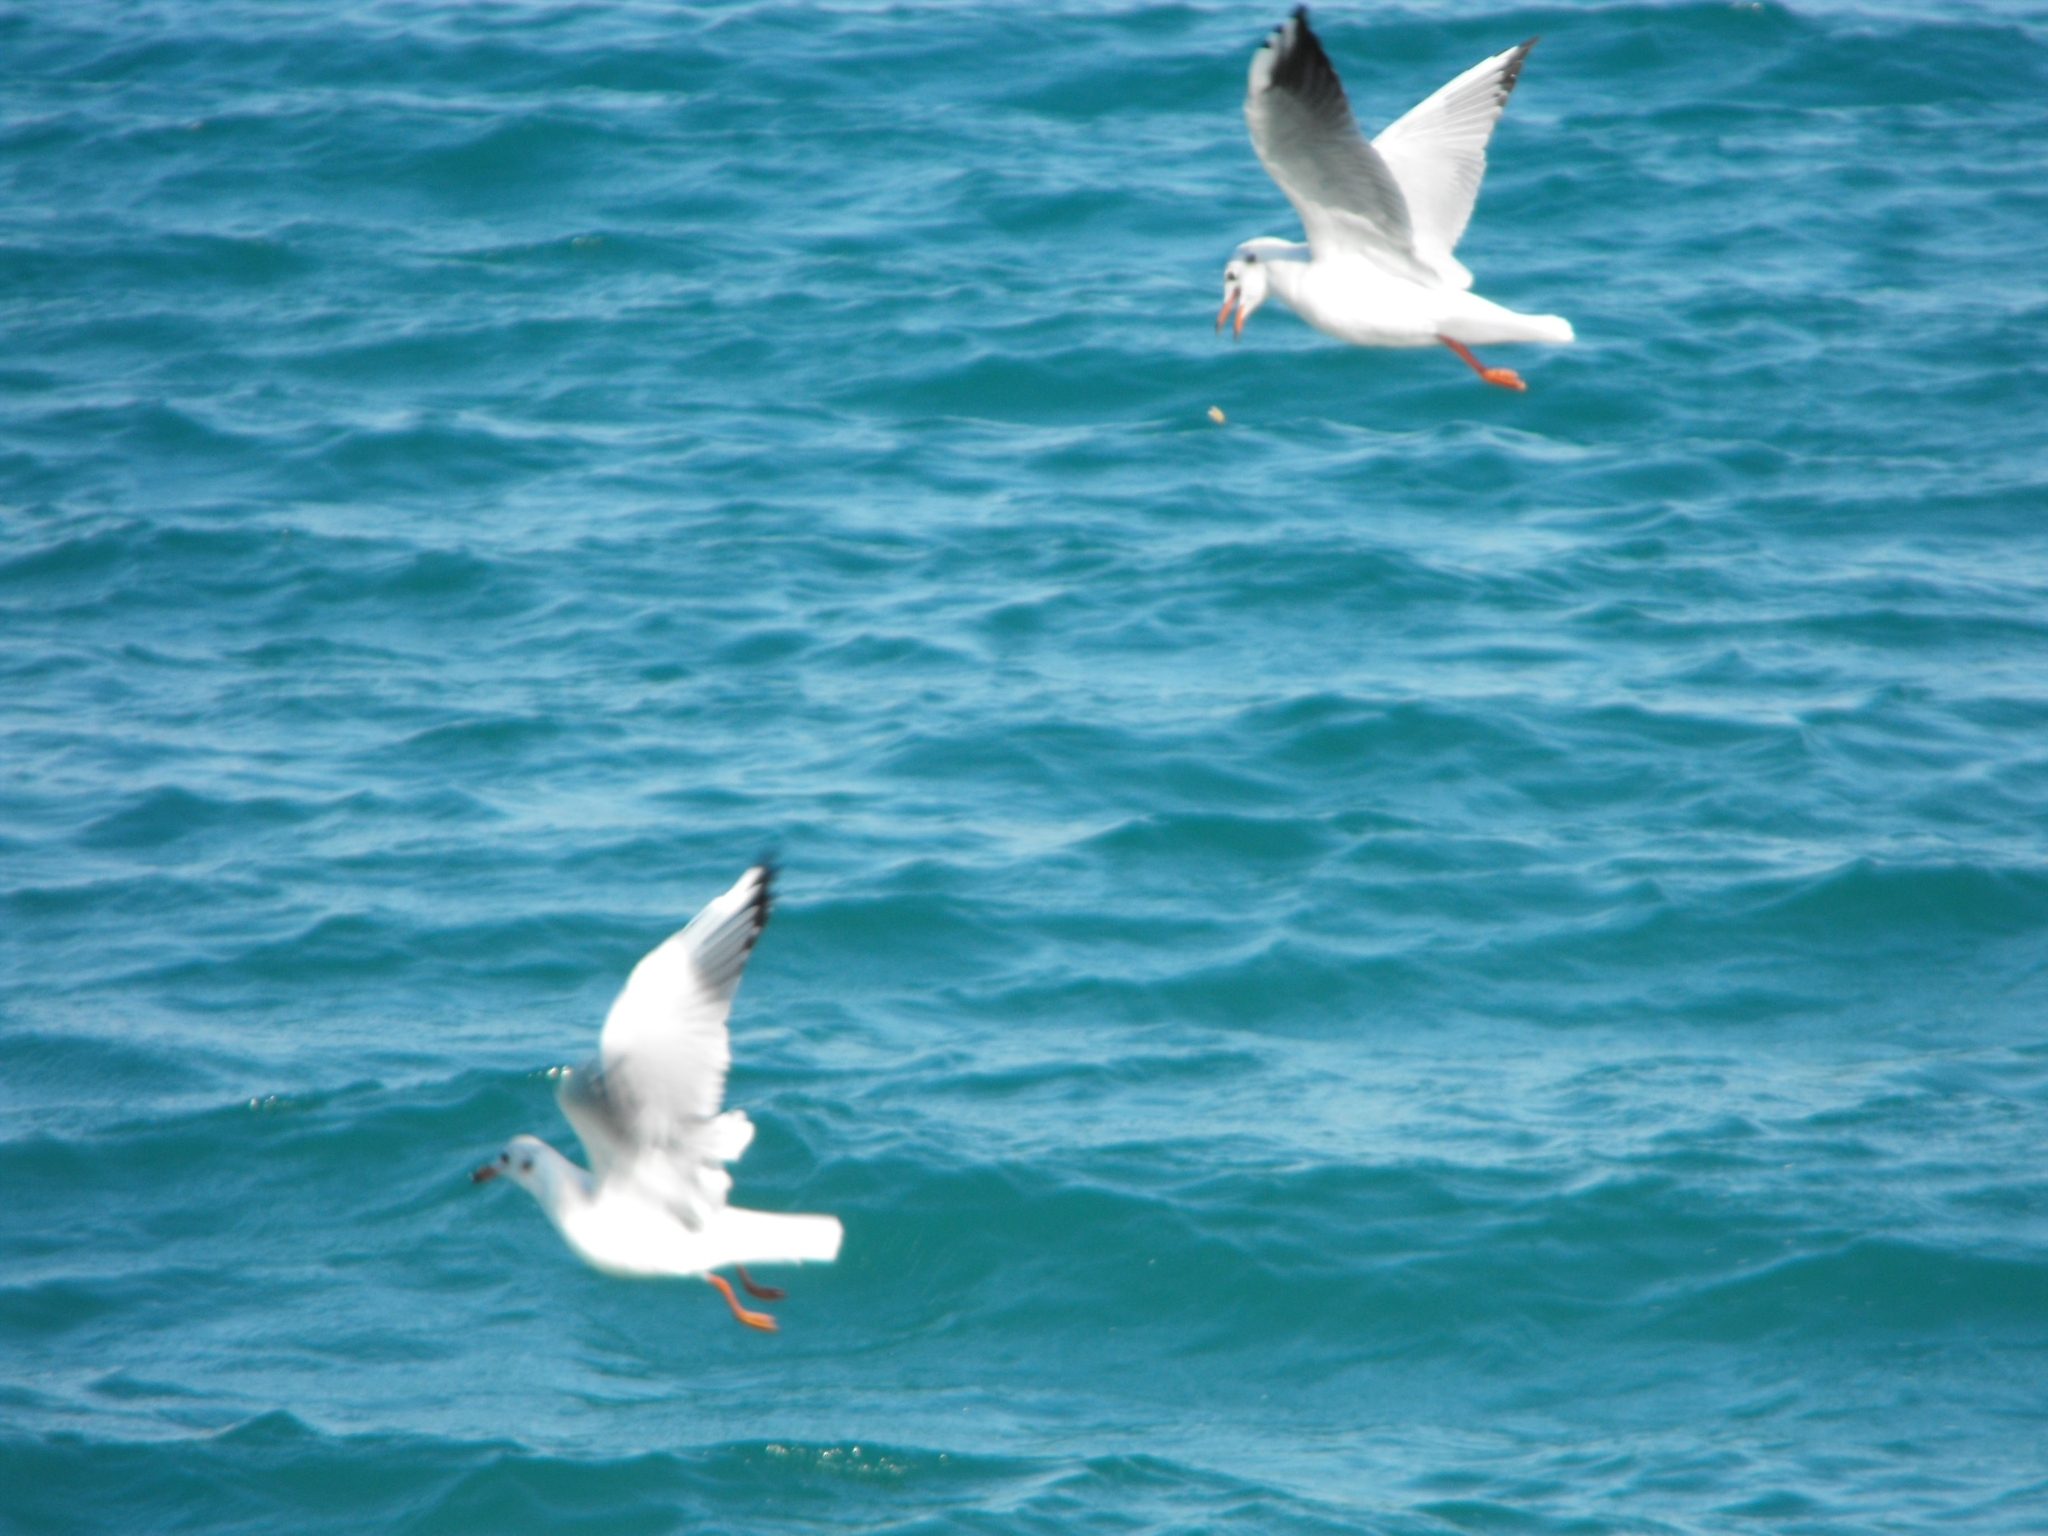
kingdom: Animalia
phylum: Chordata
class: Aves
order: Charadriiformes
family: Laridae
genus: Chroicocephalus
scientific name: Chroicocephalus ridibundus
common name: Black-headed gull
